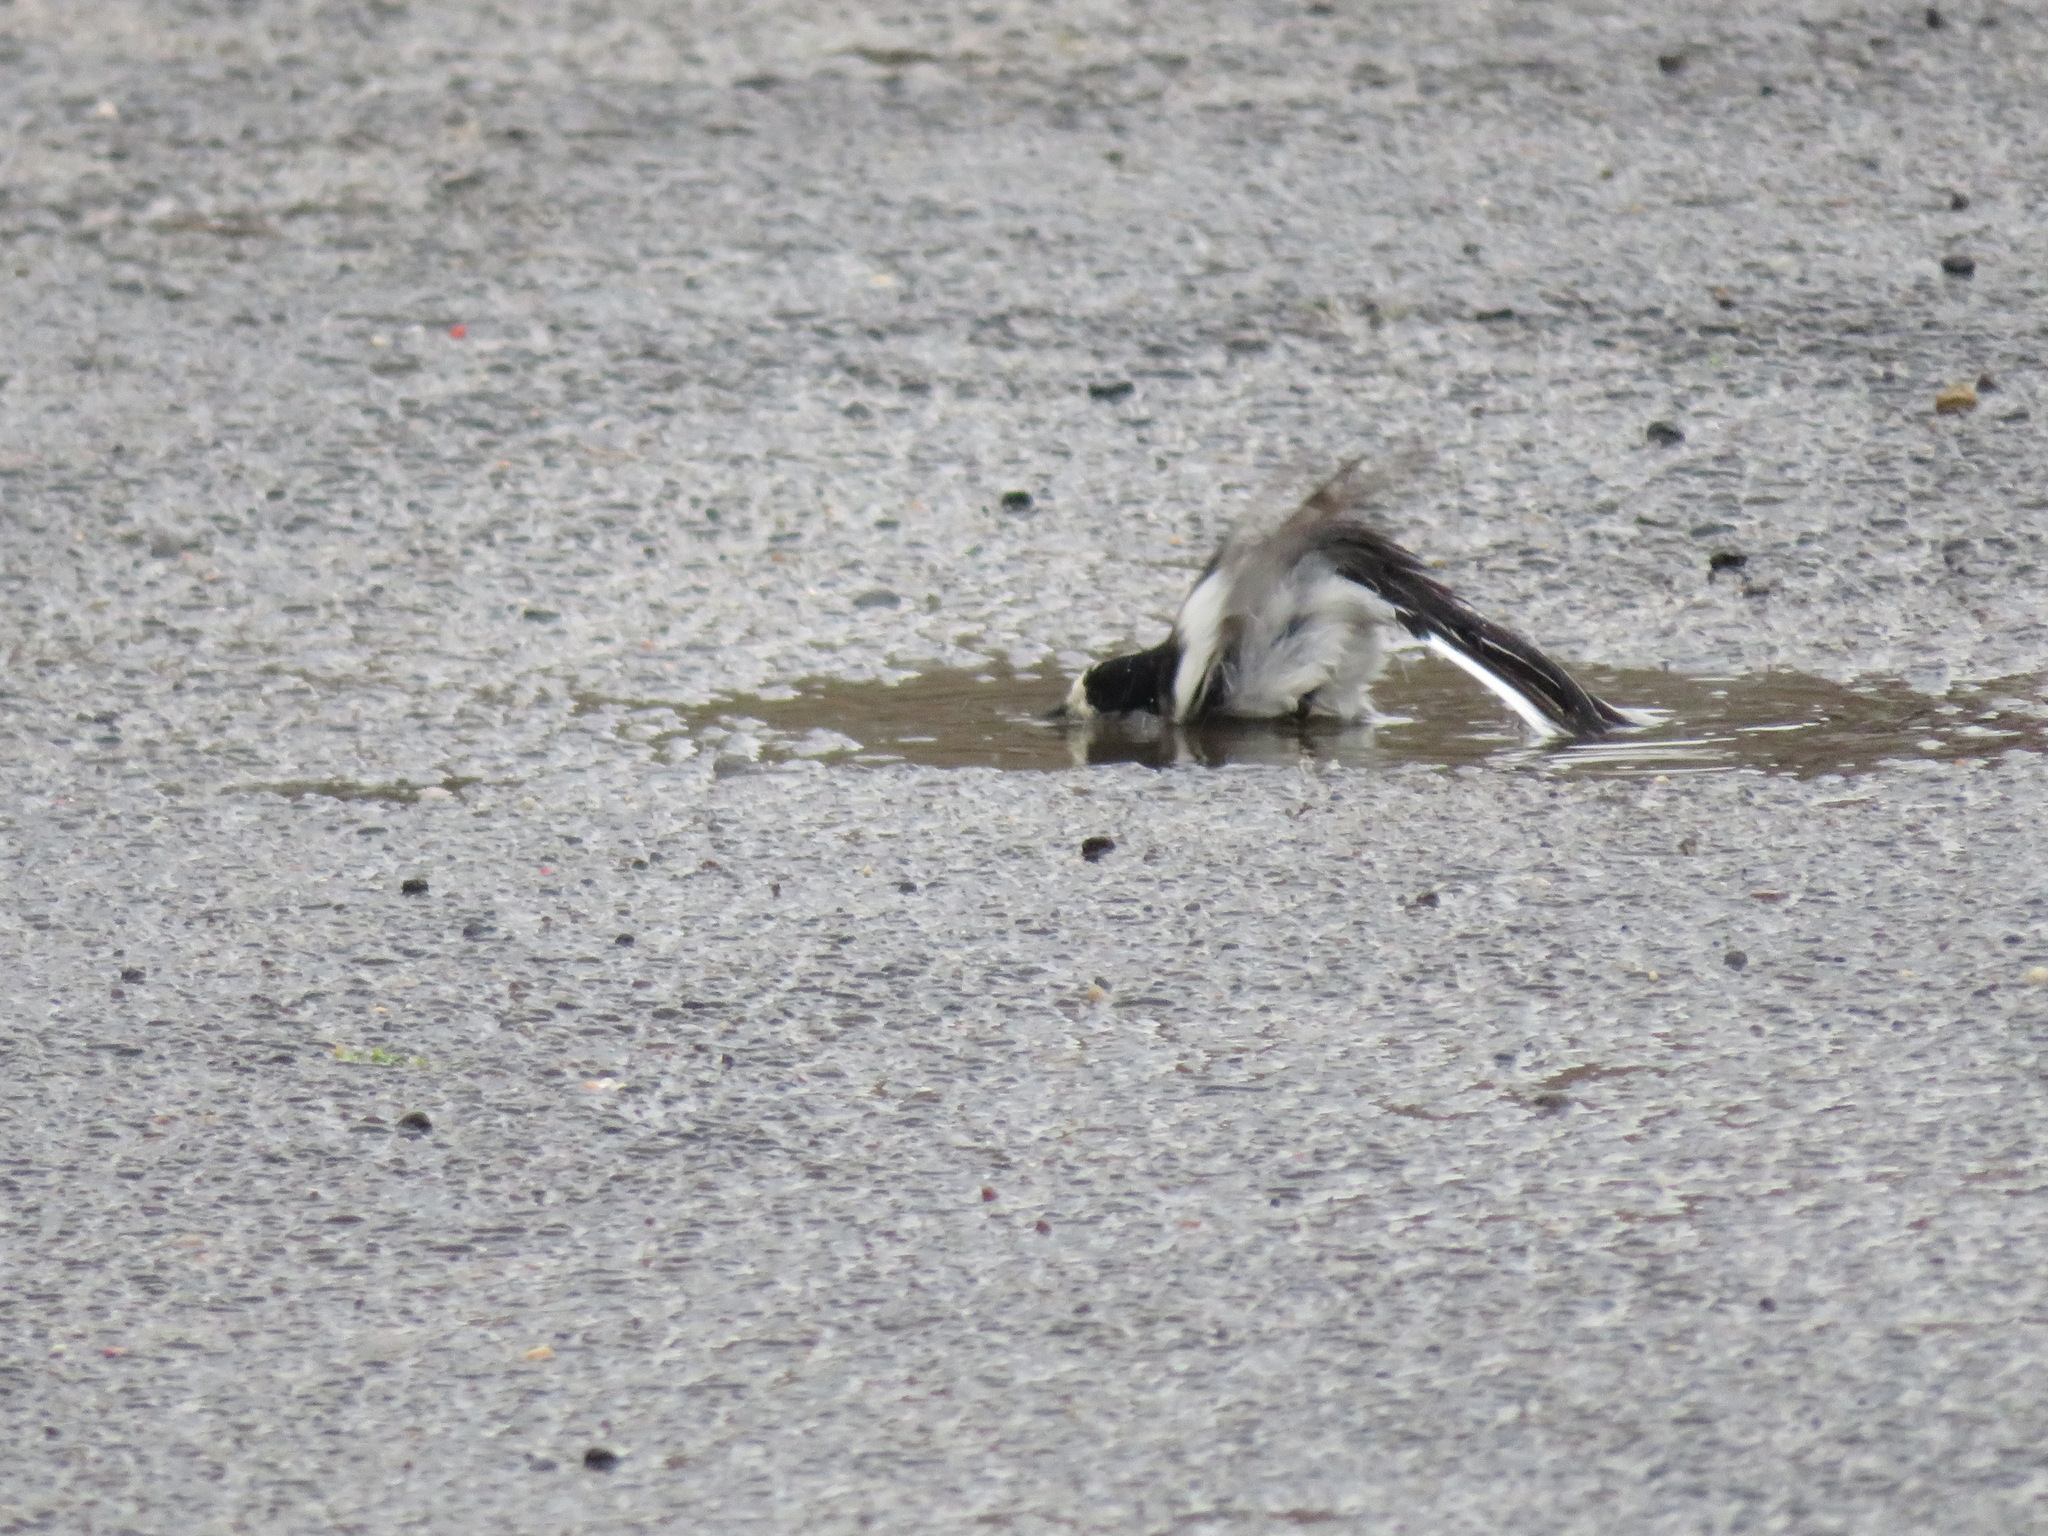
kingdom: Animalia
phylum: Chordata
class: Aves
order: Passeriformes
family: Motacillidae
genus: Motacilla
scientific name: Motacilla alba
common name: White wagtail
